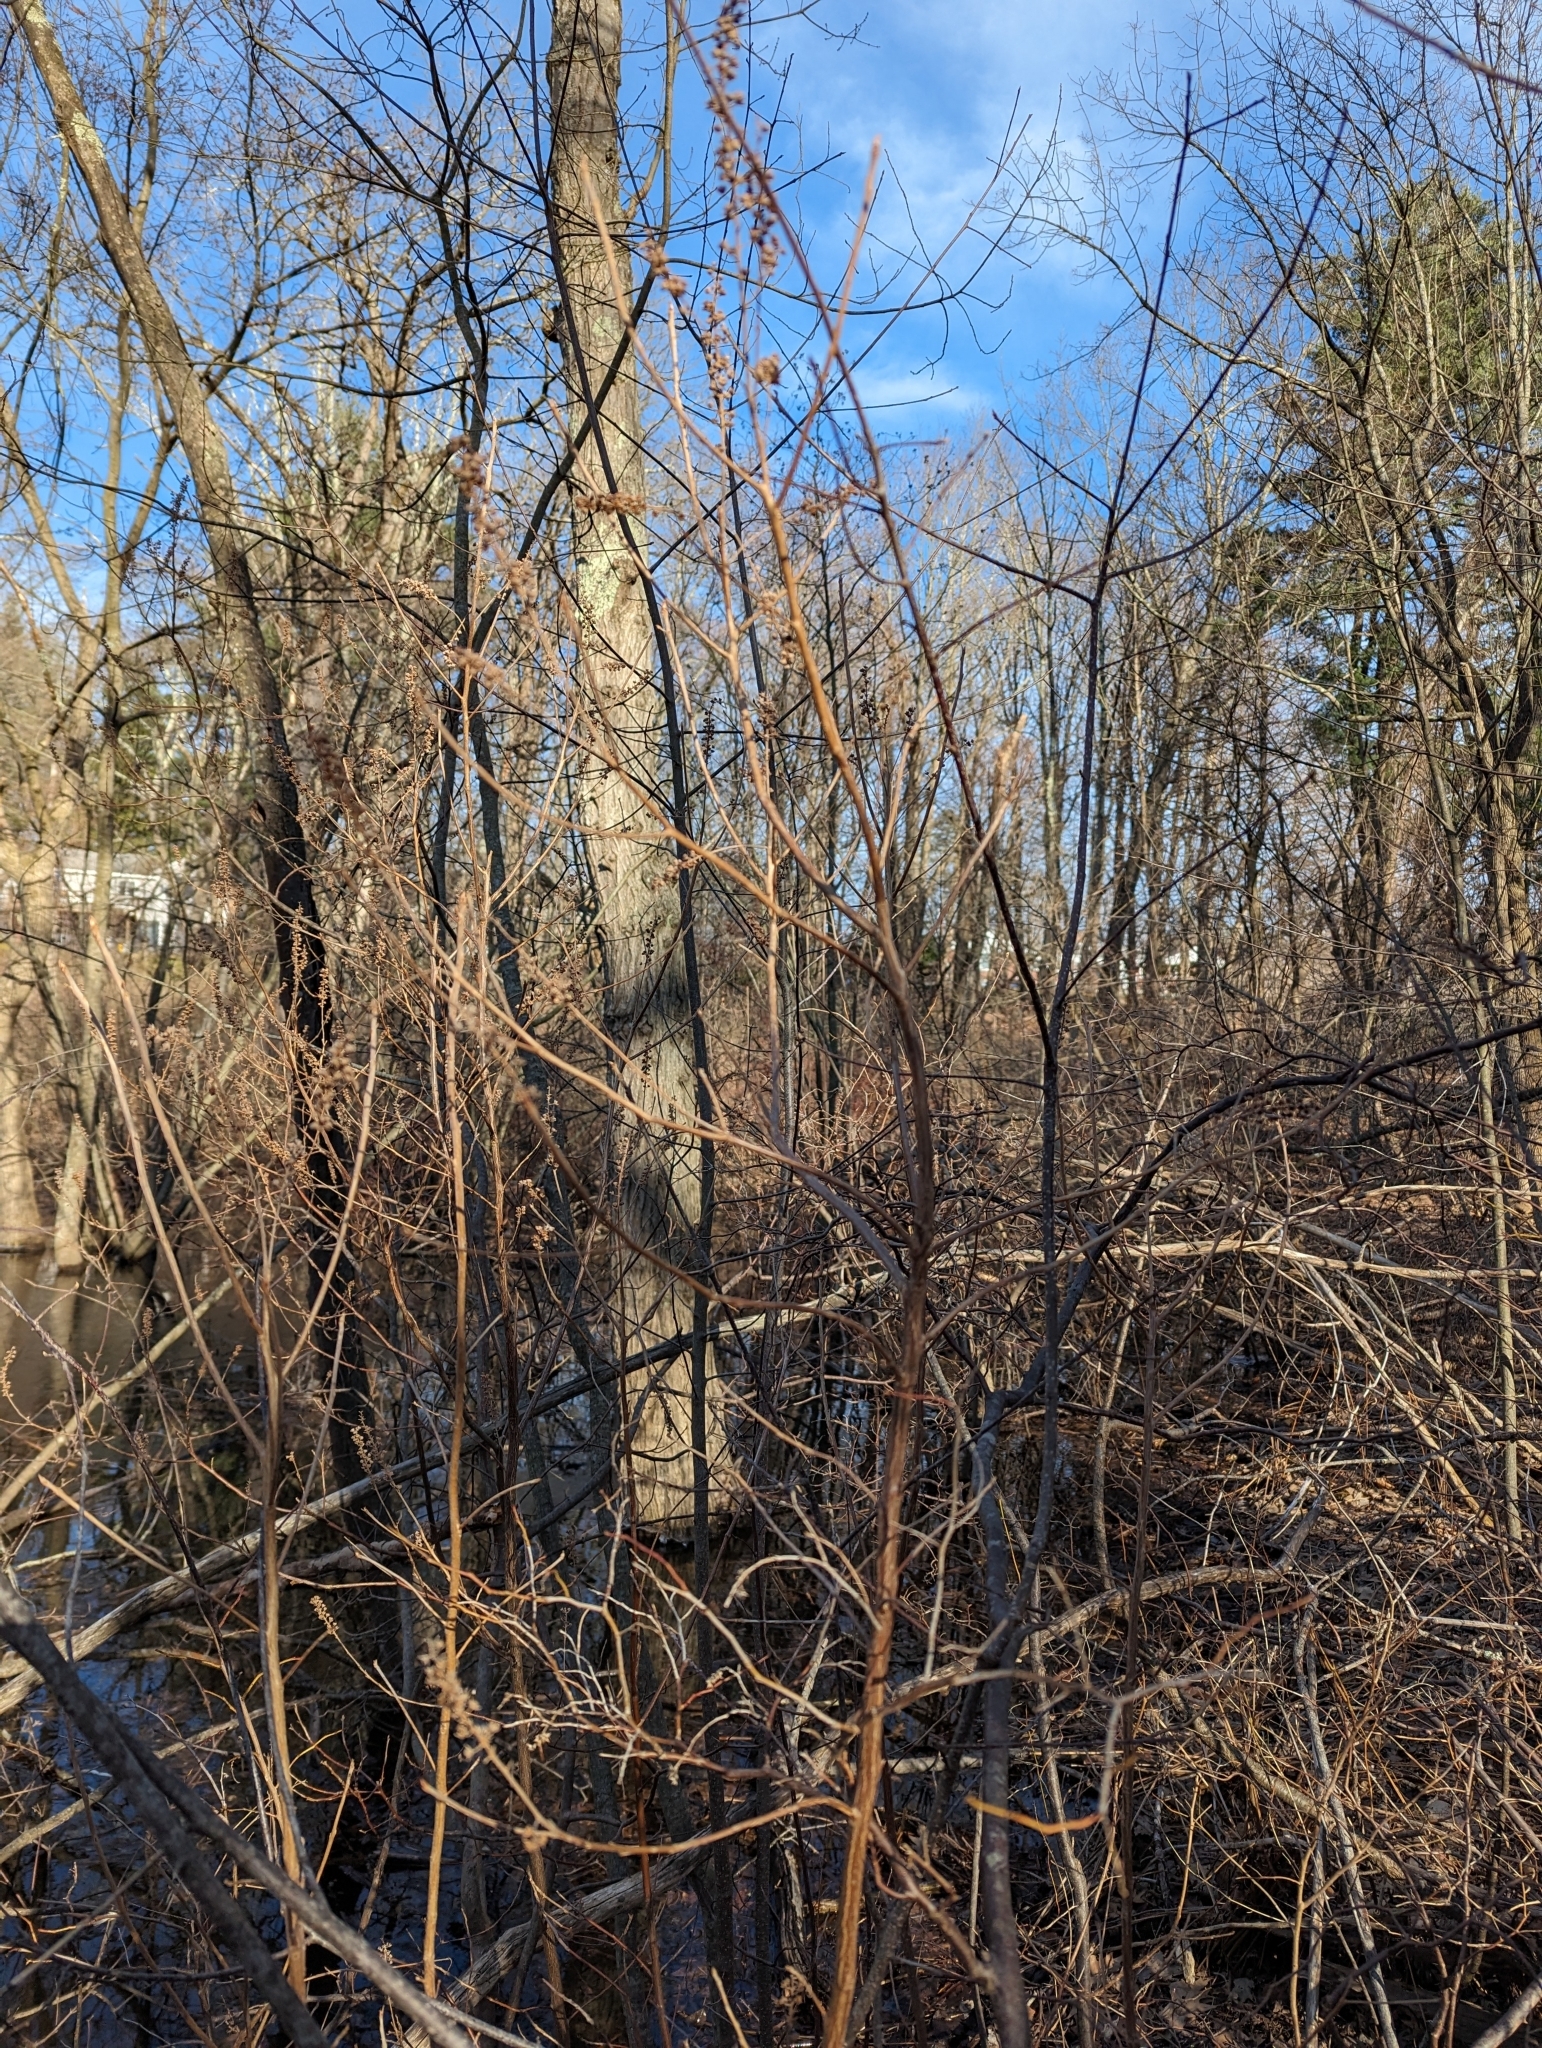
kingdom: Plantae
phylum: Tracheophyta
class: Magnoliopsida
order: Ericales
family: Clethraceae
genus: Clethra
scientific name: Clethra alnifolia
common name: Sweet pepperbush
